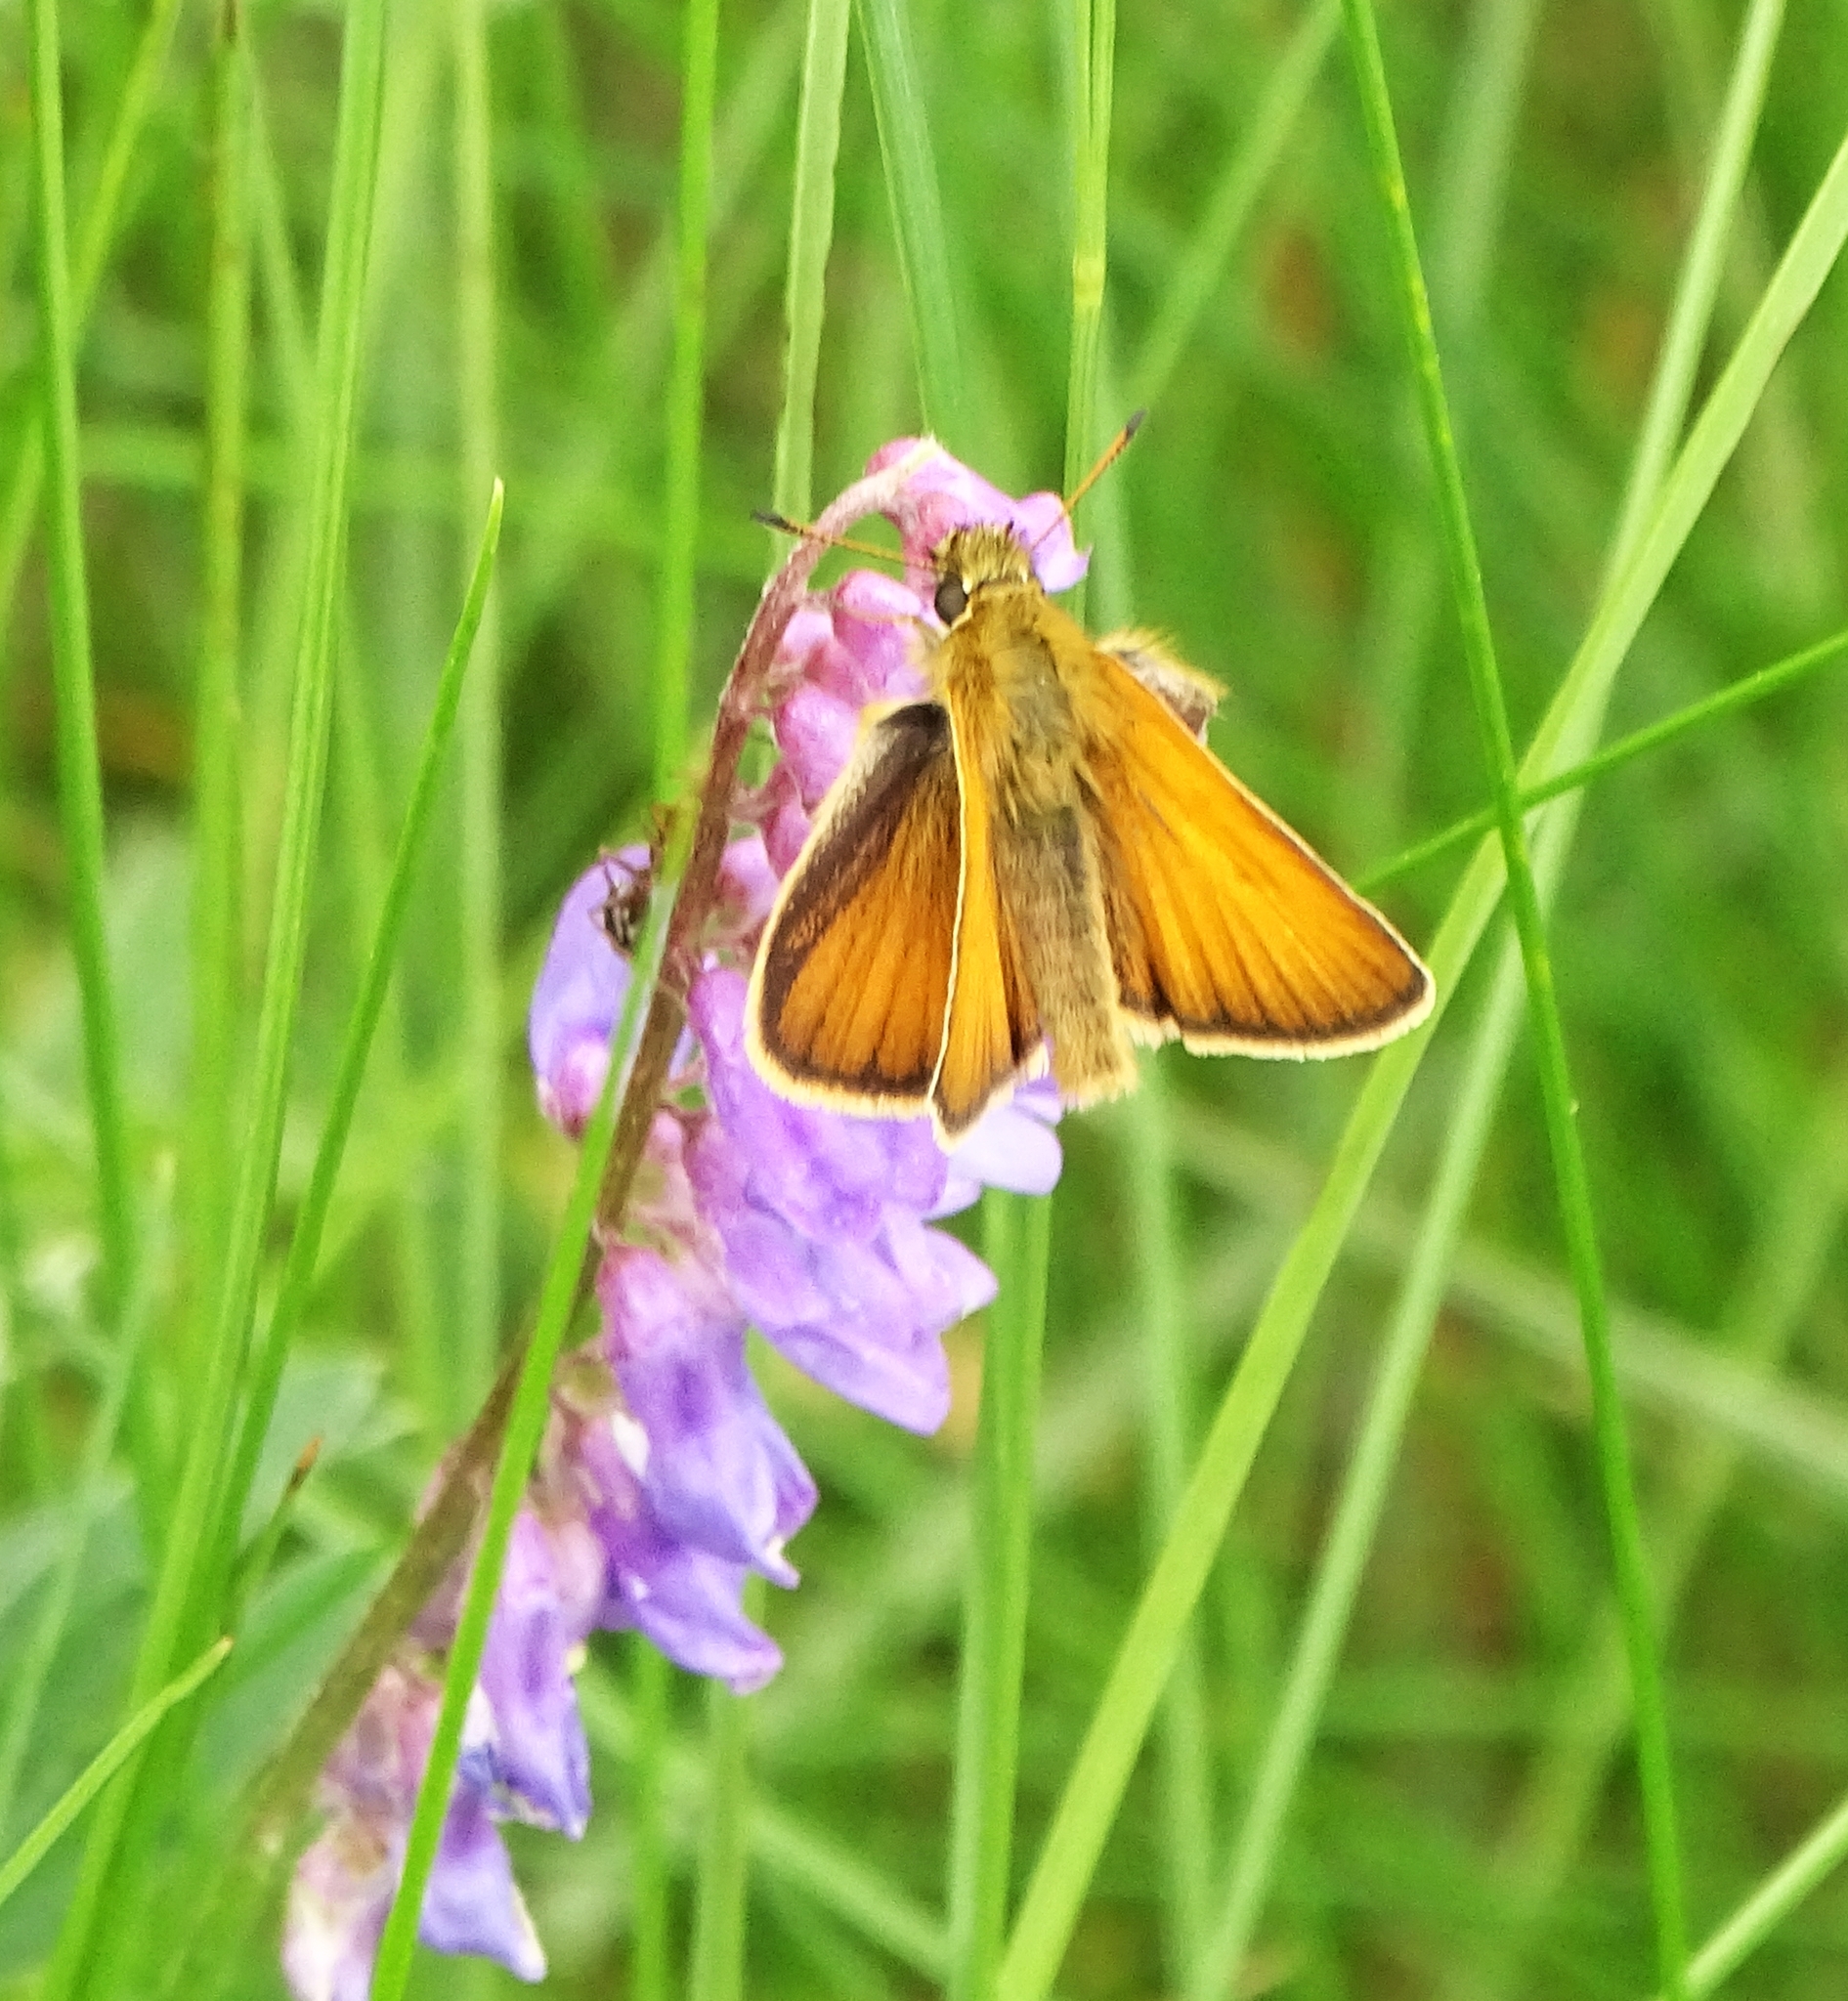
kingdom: Animalia
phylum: Arthropoda
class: Insecta
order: Lepidoptera
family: Hesperiidae
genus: Thymelicus
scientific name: Thymelicus lineola
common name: Essex skipper
